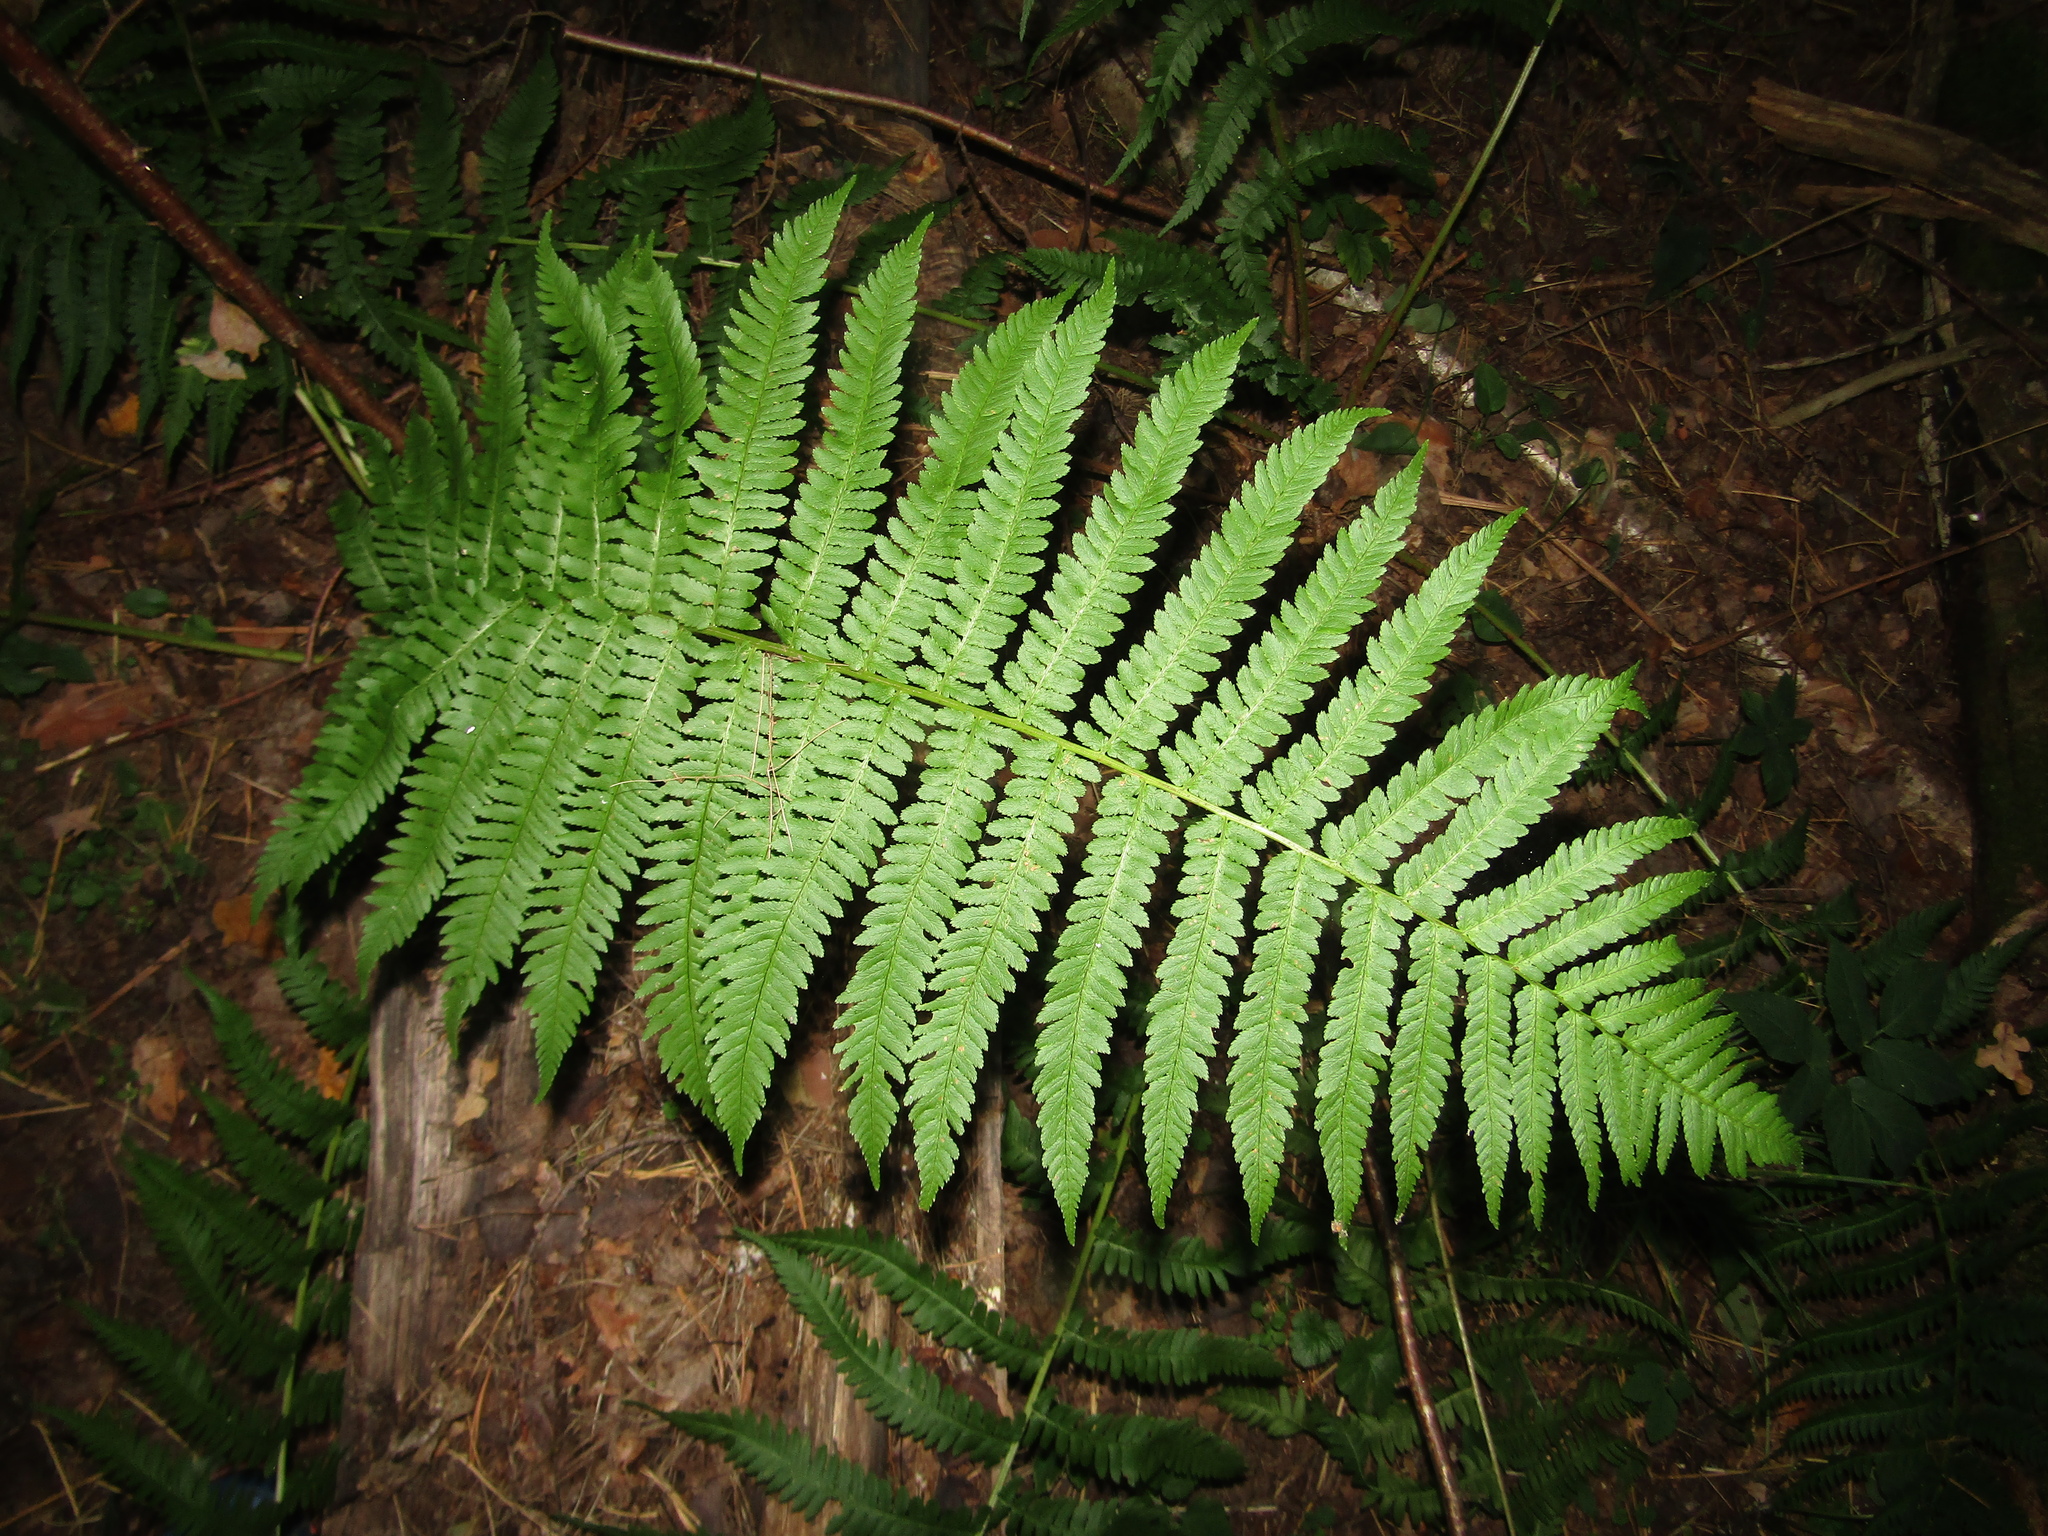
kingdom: Plantae
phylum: Tracheophyta
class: Polypodiopsida
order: Polypodiales
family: Dryopteridaceae
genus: Dryopteris
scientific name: Dryopteris filix-mas
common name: Male fern
